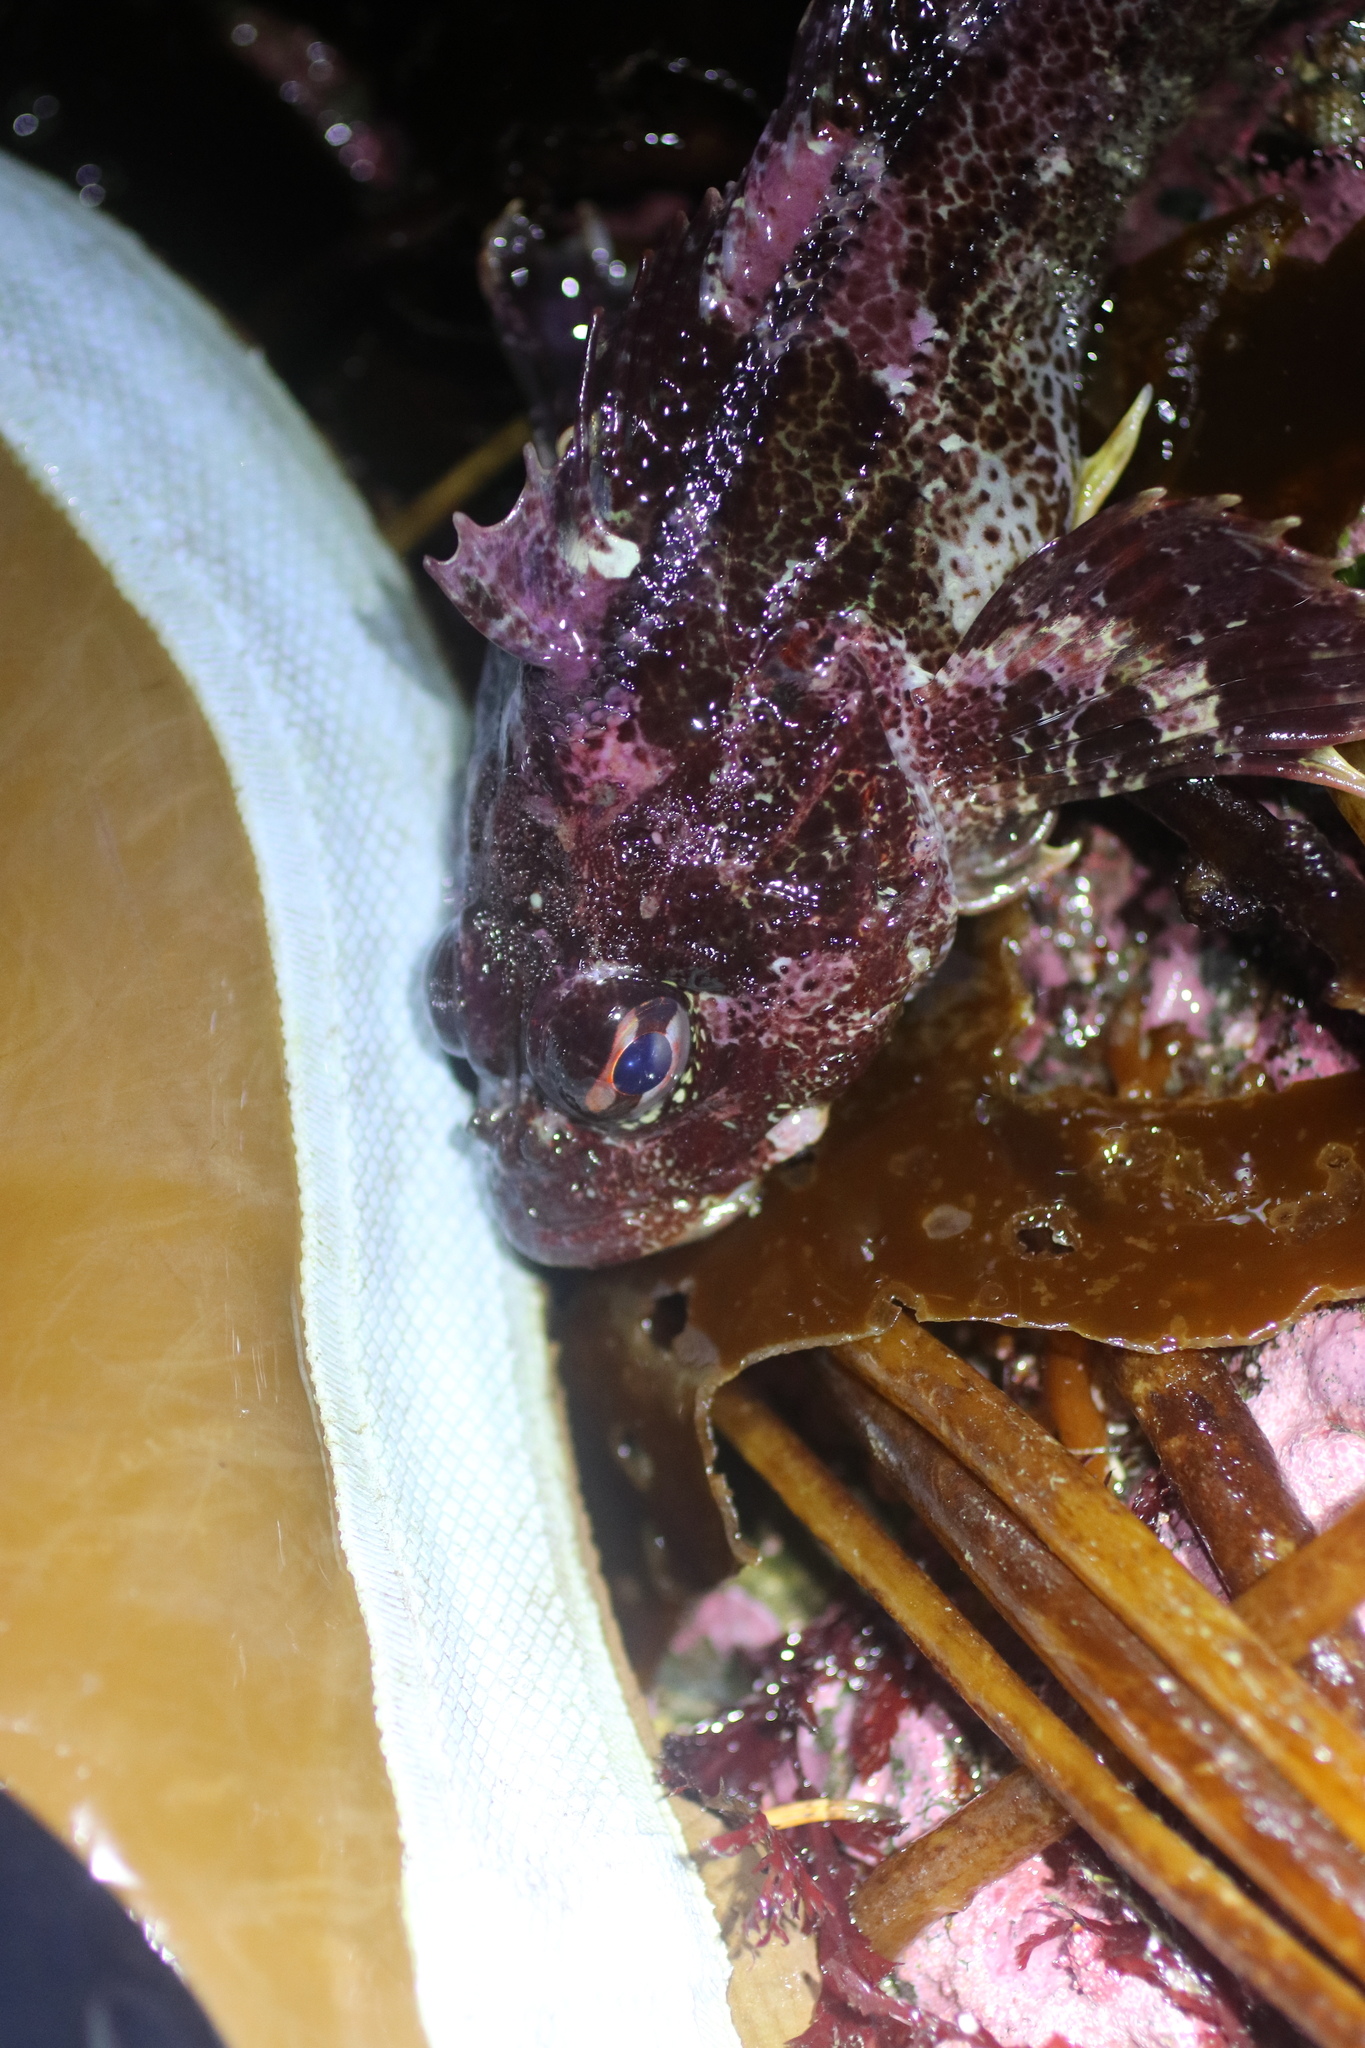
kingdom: Animalia
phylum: Chordata
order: Scorpaeniformes
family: Cottidae
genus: Hemilepidotus
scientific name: Hemilepidotus hemilepidotus
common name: Red irish lord
